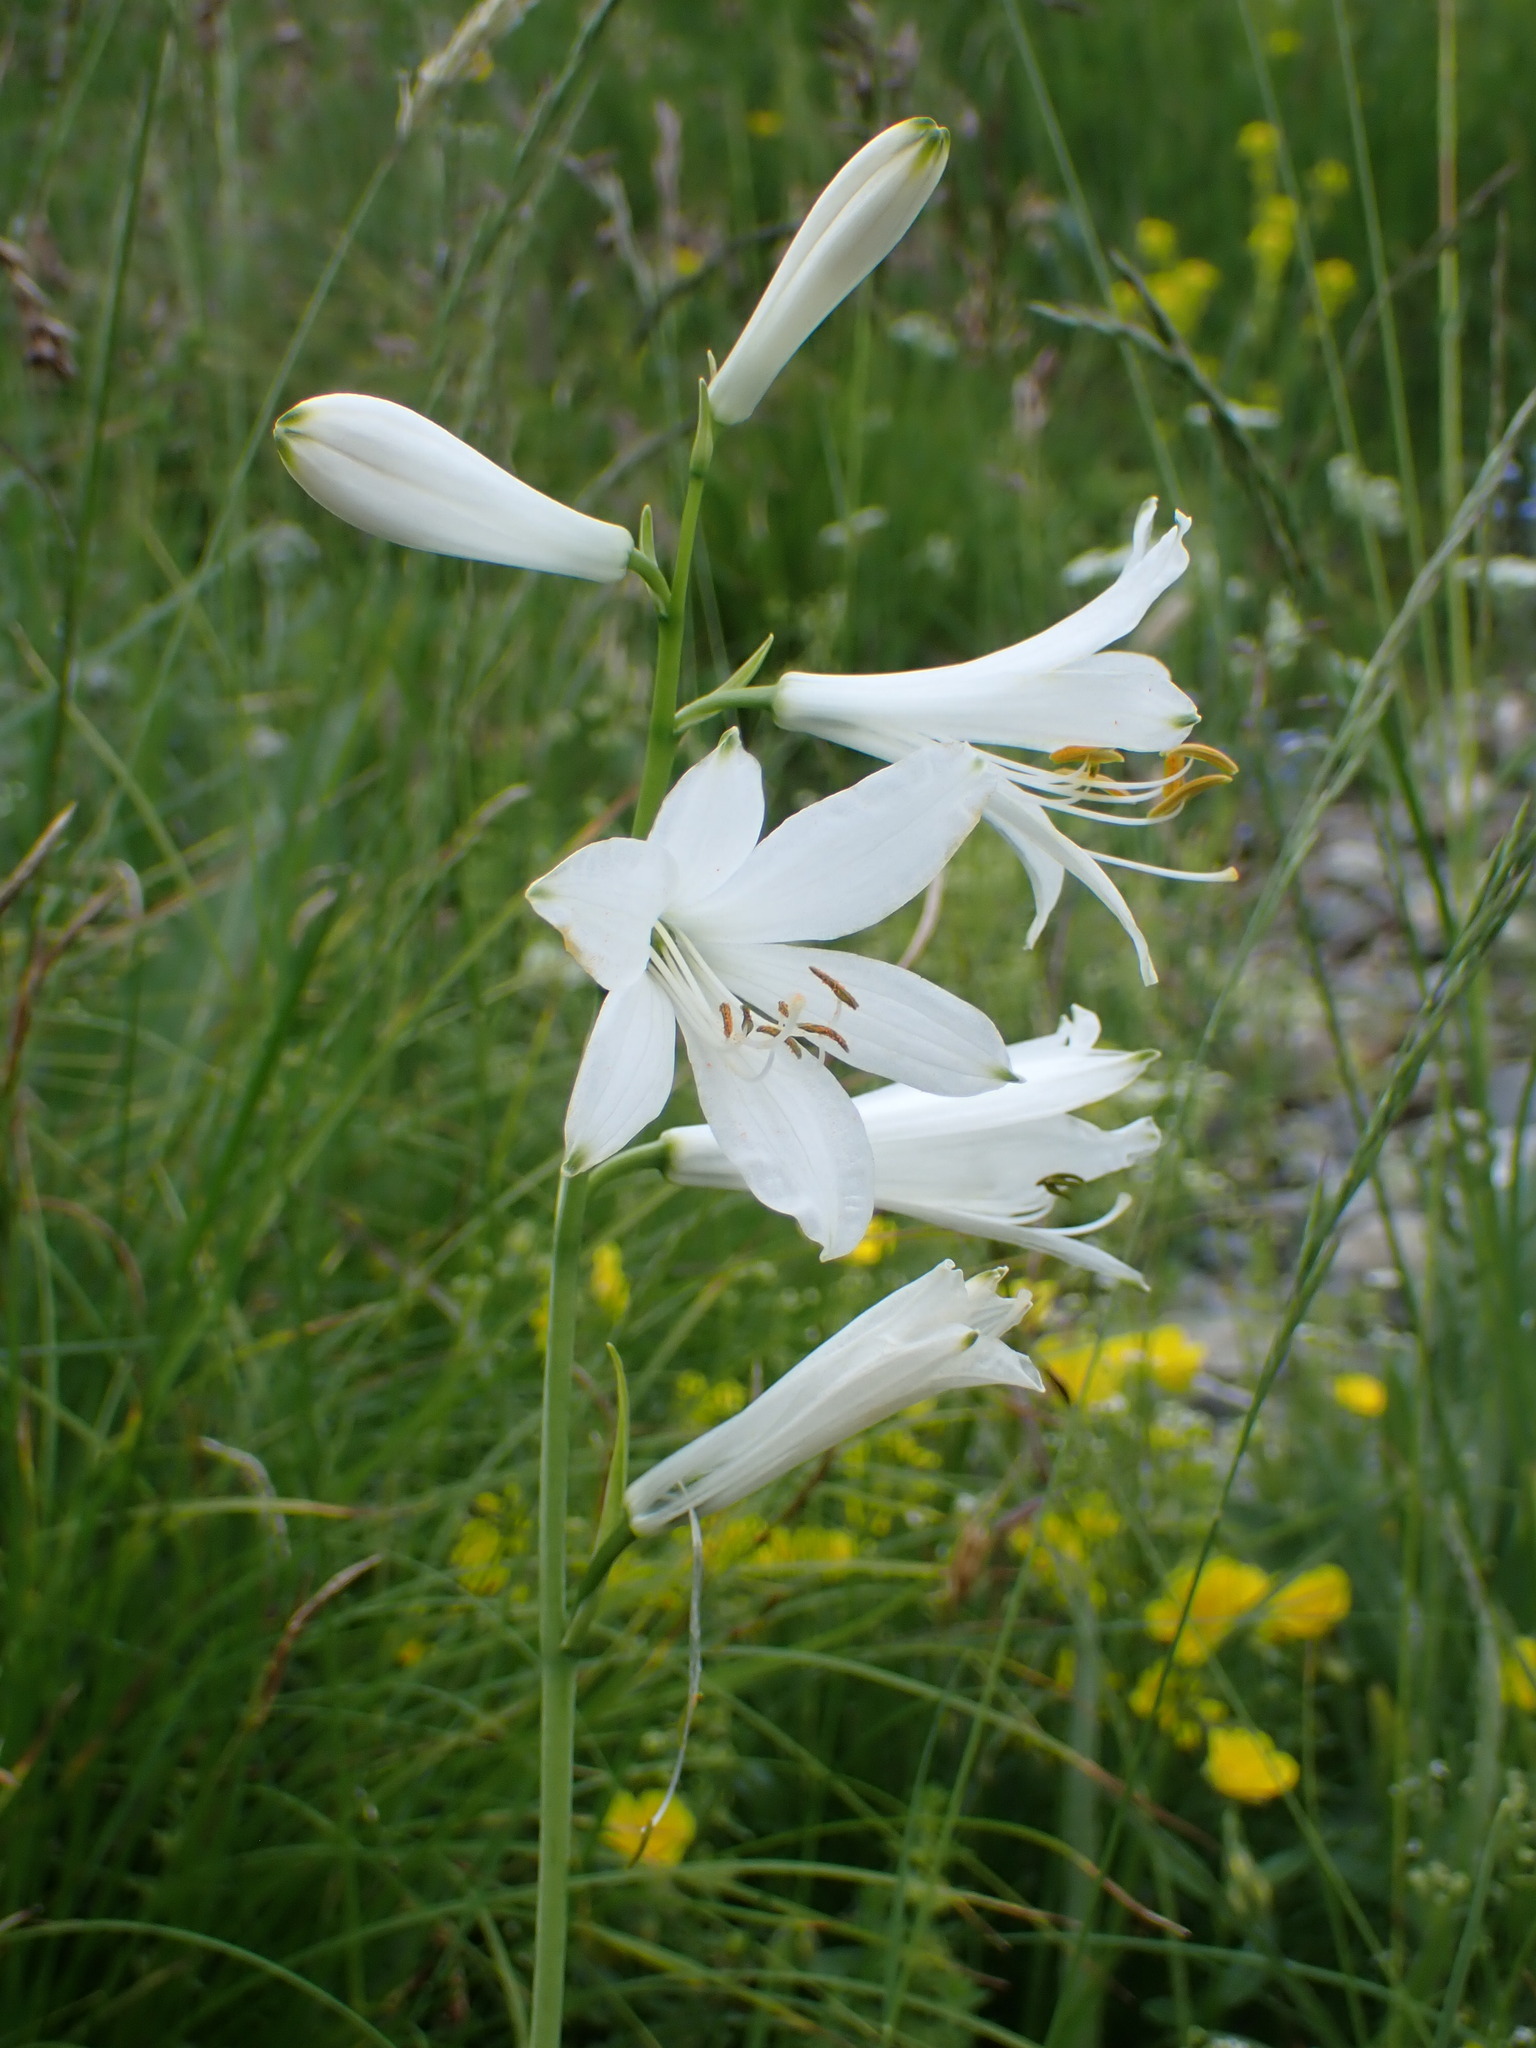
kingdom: Plantae
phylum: Tracheophyta
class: Liliopsida
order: Asparagales
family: Asparagaceae
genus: Paradisea
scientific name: Paradisea liliastrum
